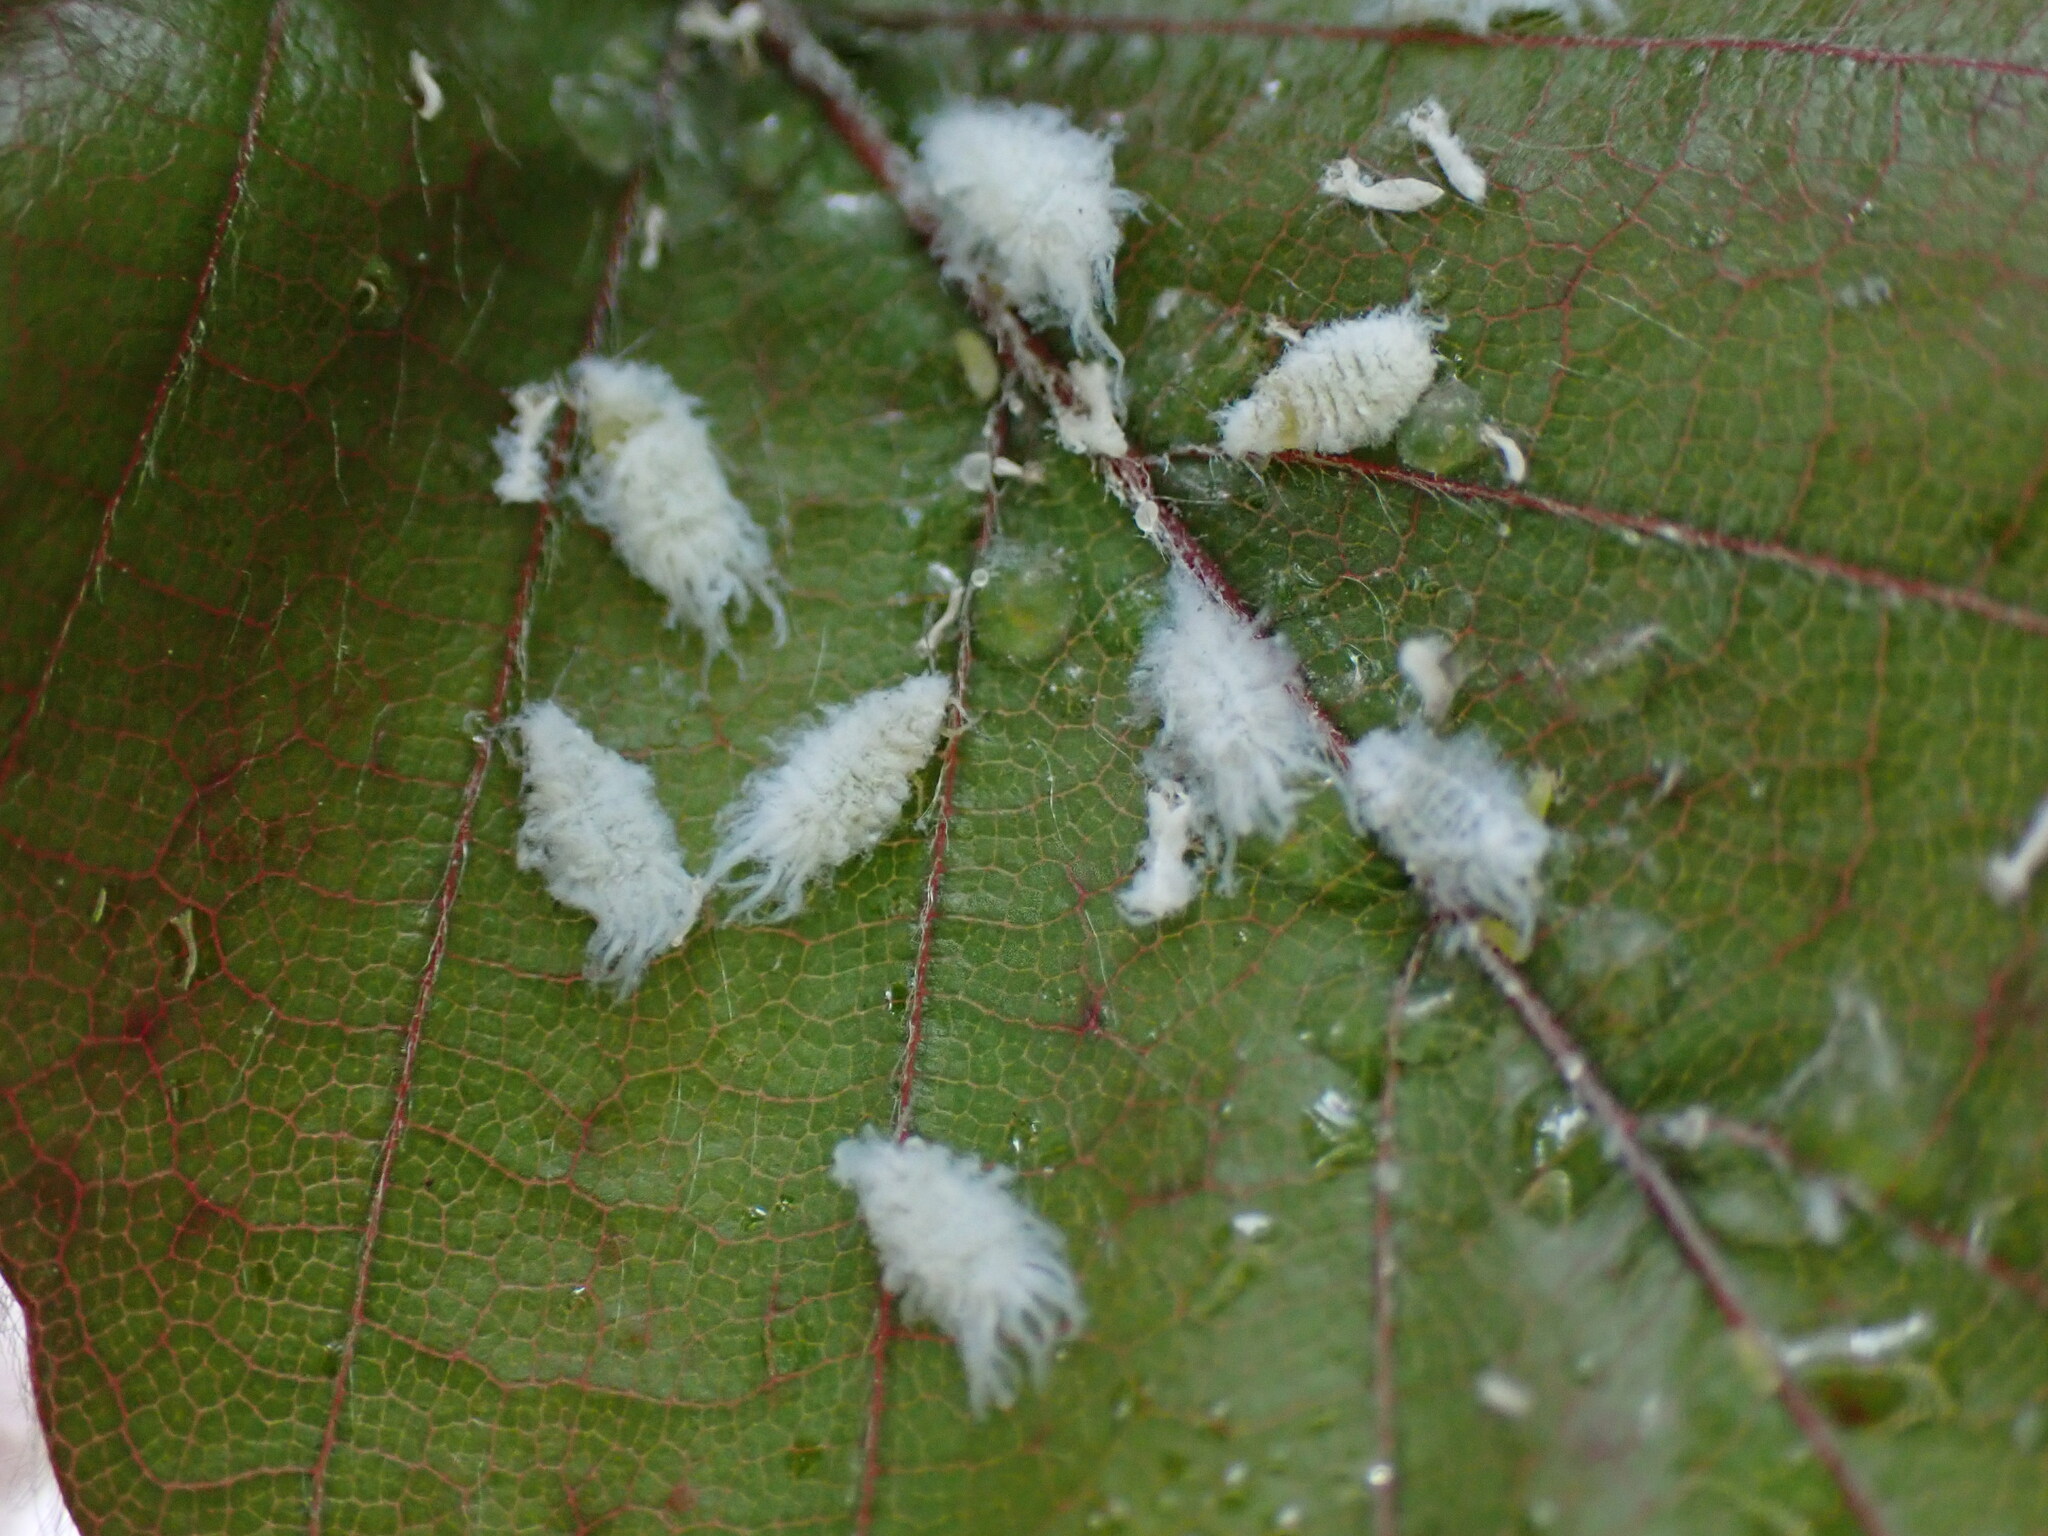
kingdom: Animalia
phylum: Arthropoda
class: Insecta
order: Hemiptera
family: Aphididae
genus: Phyllaphis
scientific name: Phyllaphis fagi
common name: Beech aphid
